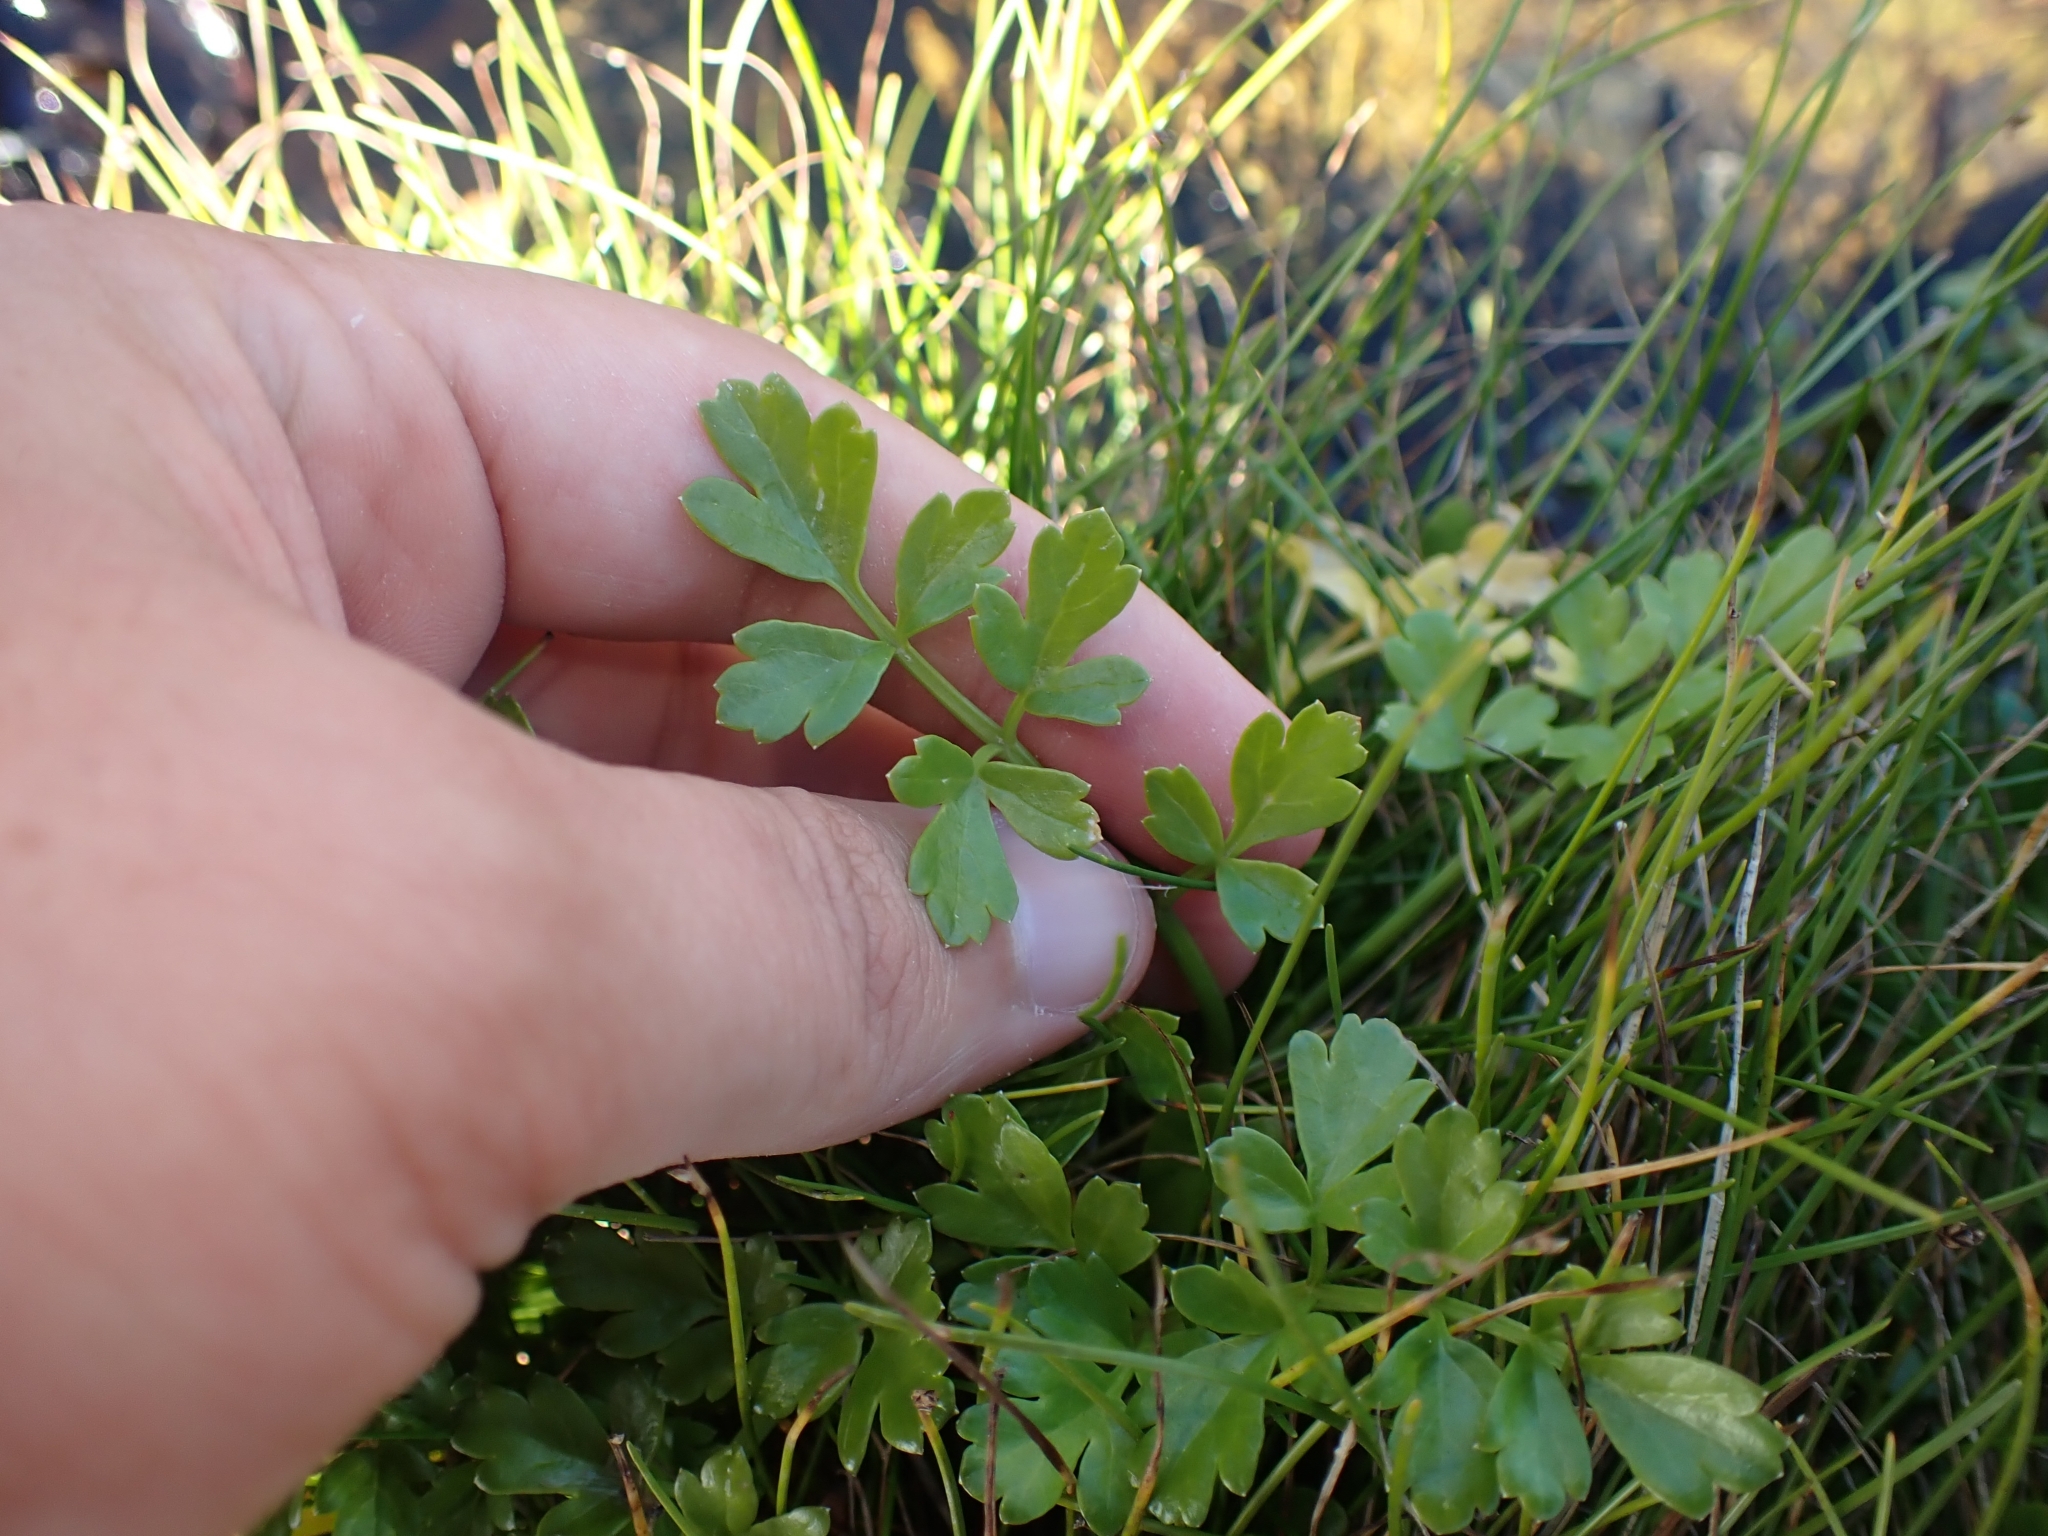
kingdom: Plantae
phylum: Tracheophyta
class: Magnoliopsida
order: Apiales
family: Apiaceae
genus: Apium
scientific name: Apium prostratum
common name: Prostrate marshwort
